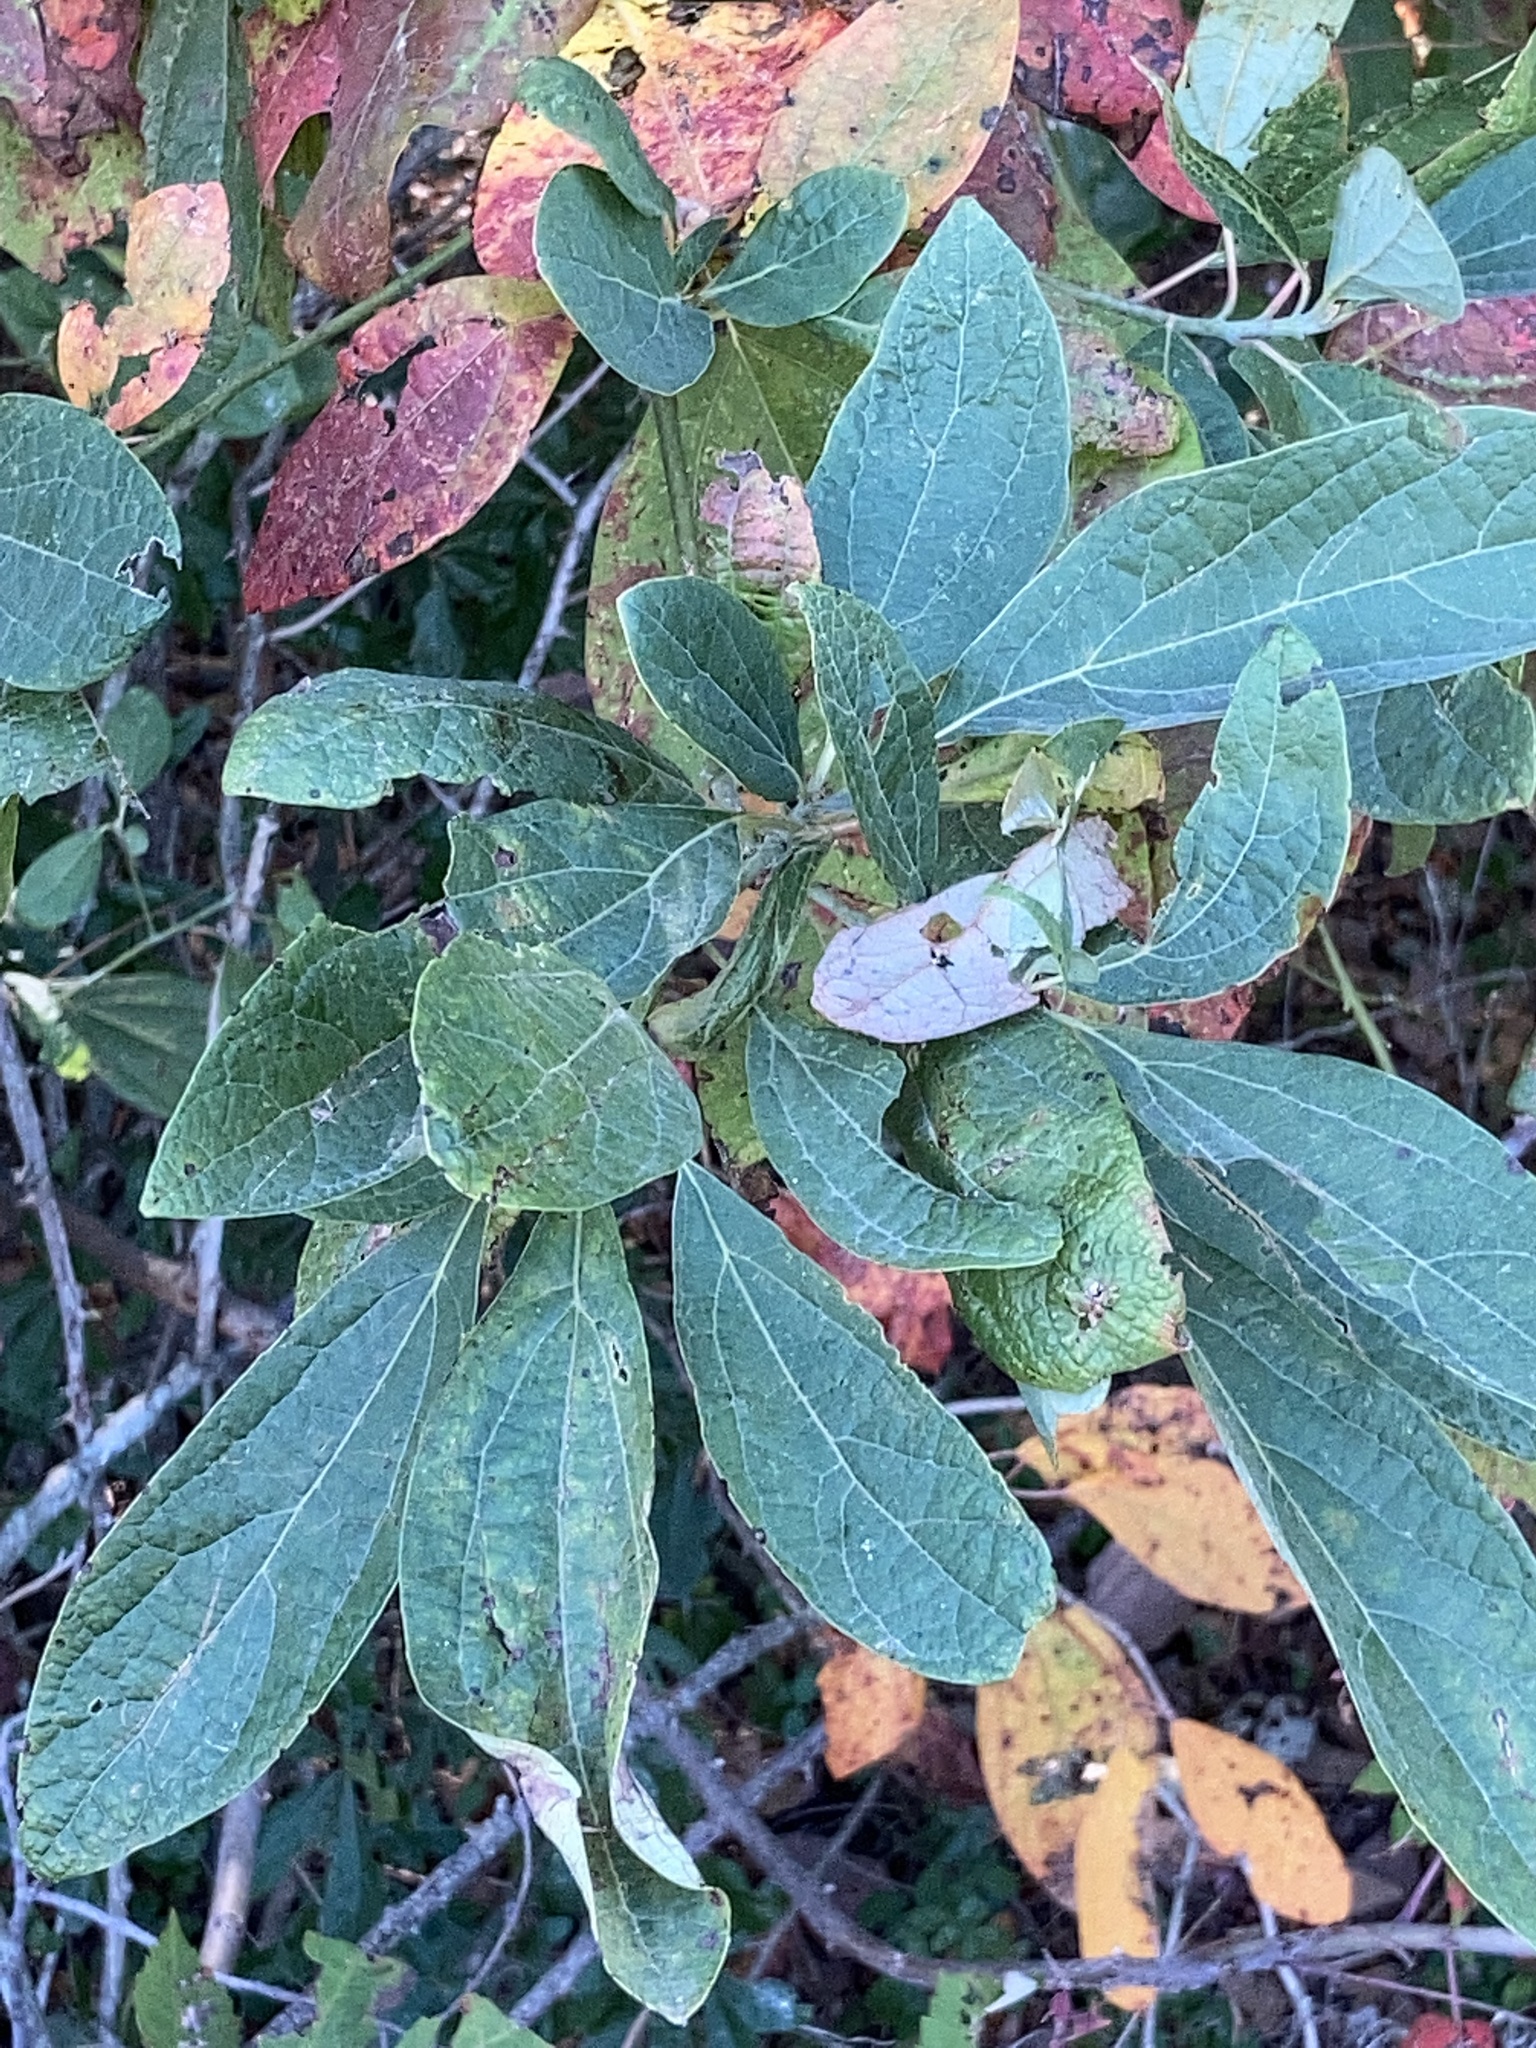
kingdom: Plantae
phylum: Tracheophyta
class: Magnoliopsida
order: Laurales
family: Lauraceae
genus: Sassafras
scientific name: Sassafras albidum
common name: Sassafras
